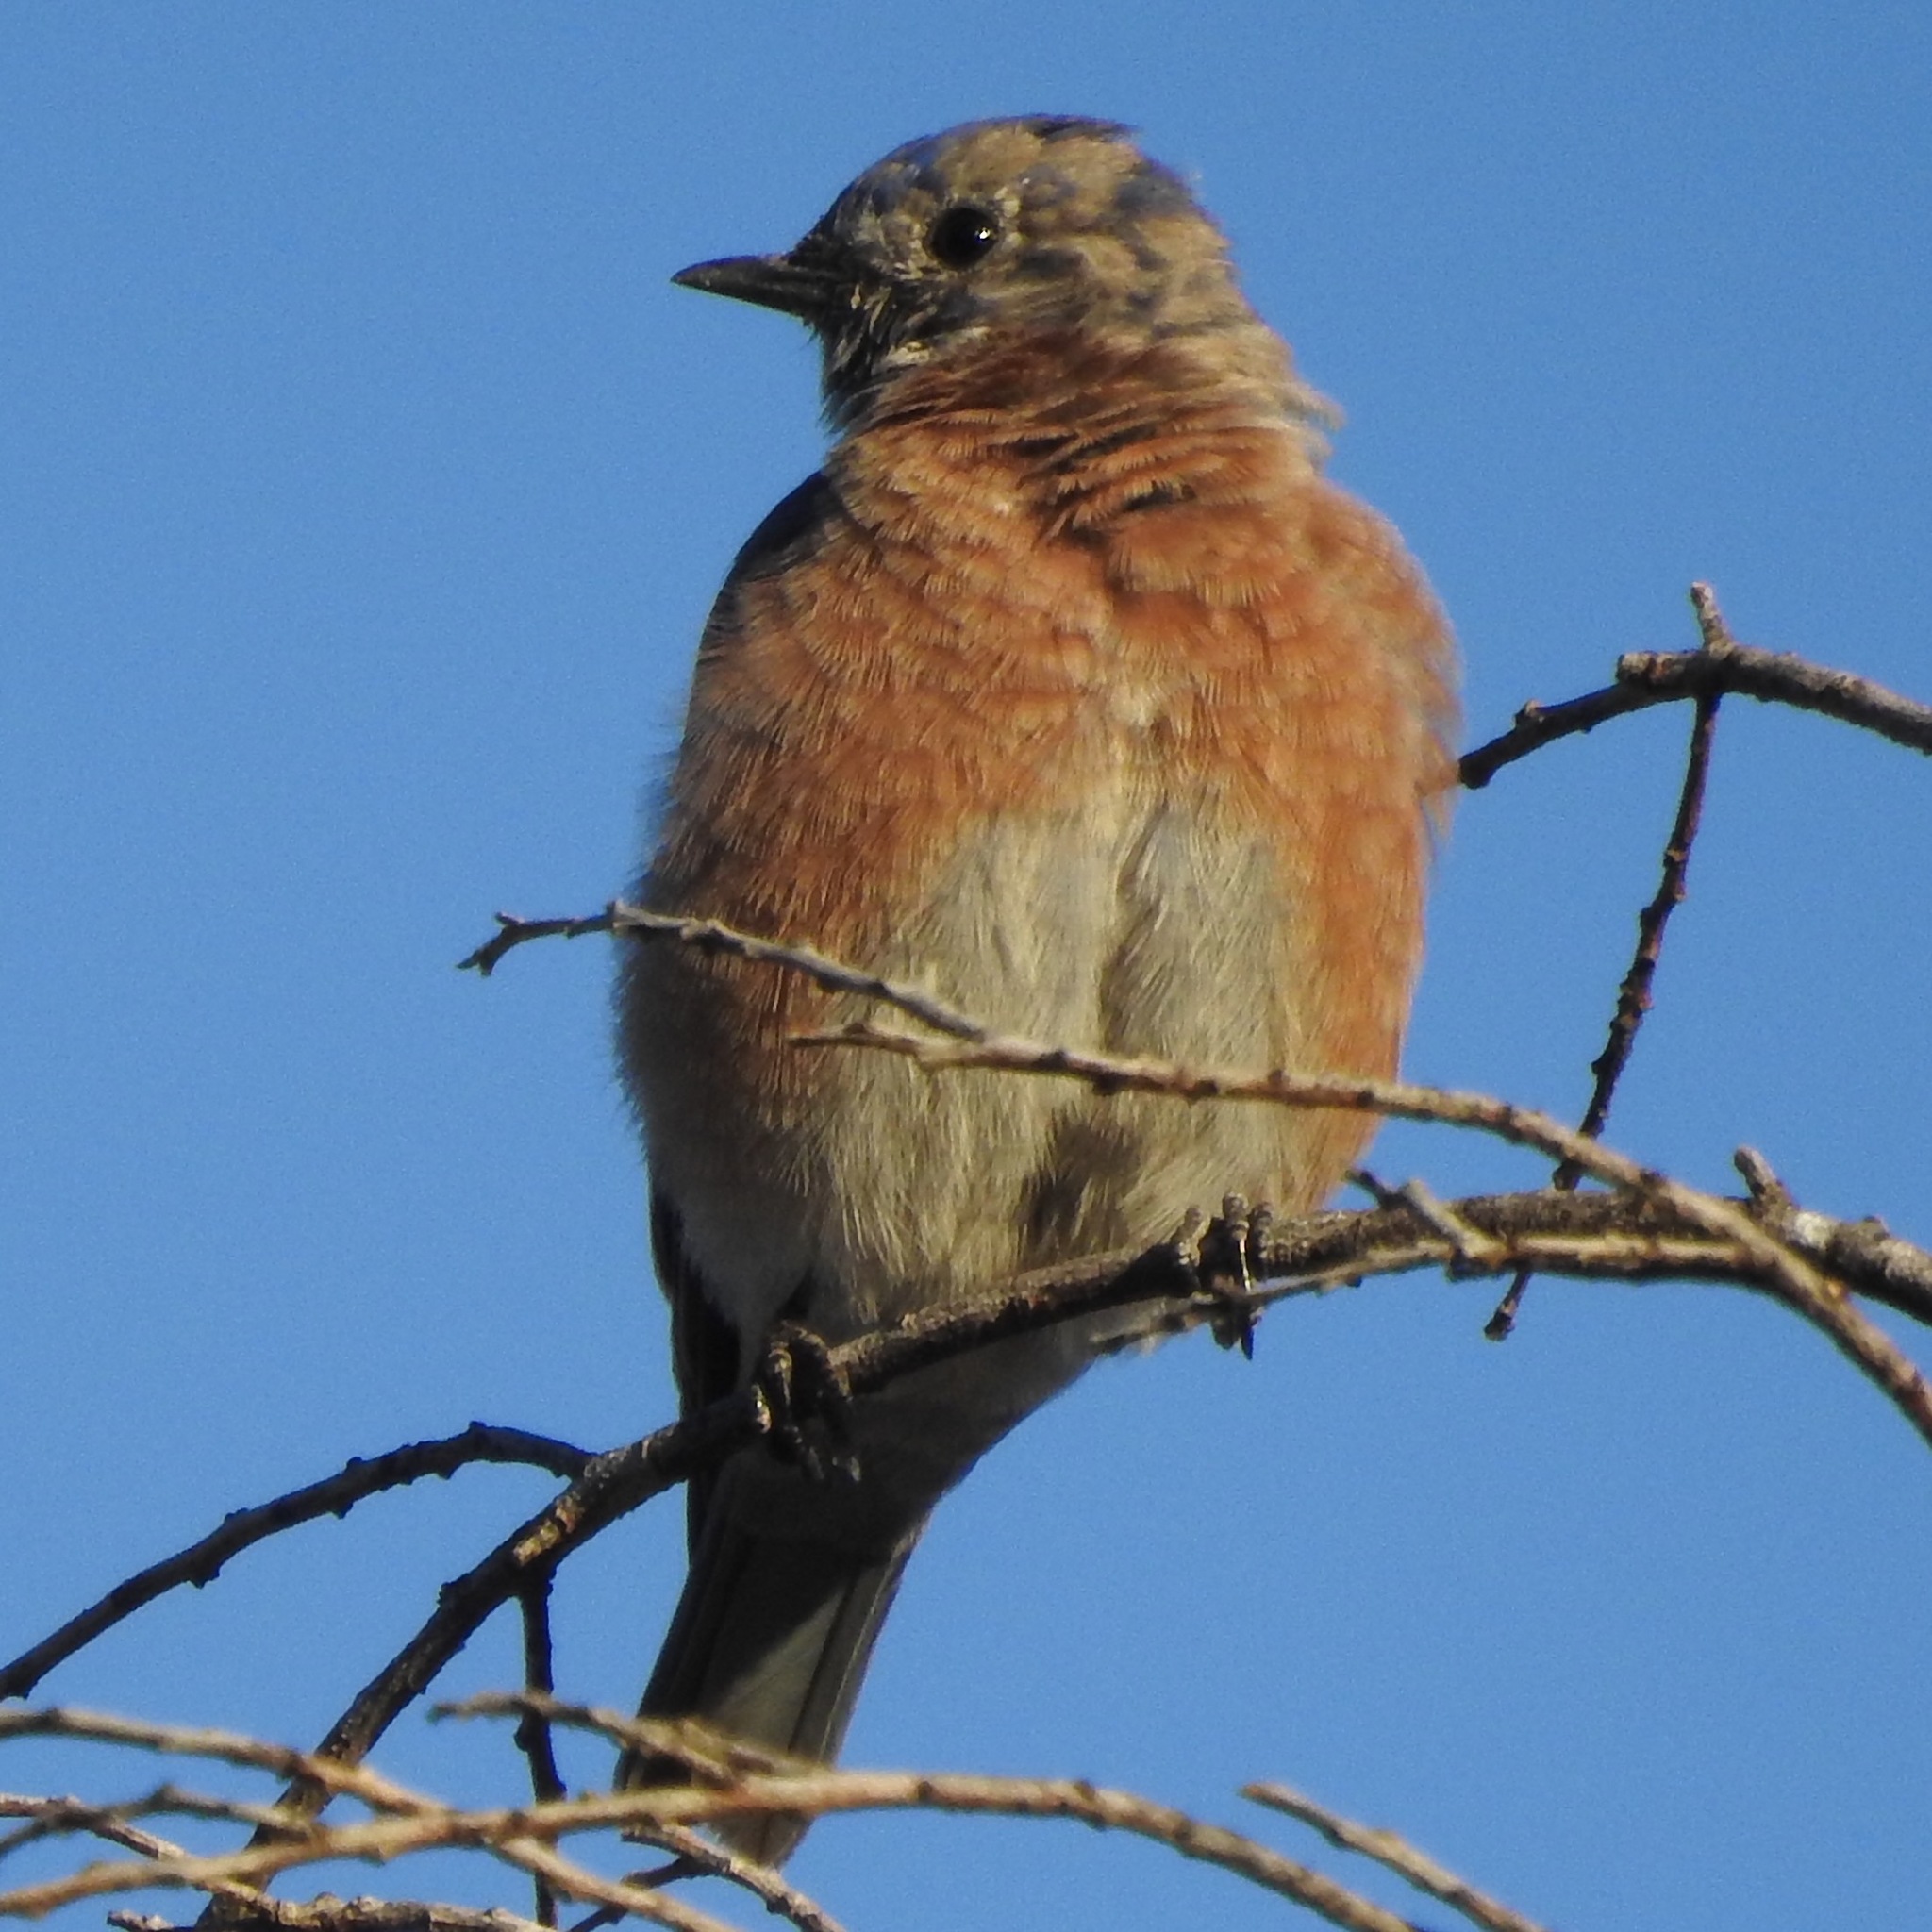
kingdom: Animalia
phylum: Chordata
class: Aves
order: Passeriformes
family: Turdidae
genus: Sialia
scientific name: Sialia mexicana
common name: Western bluebird
